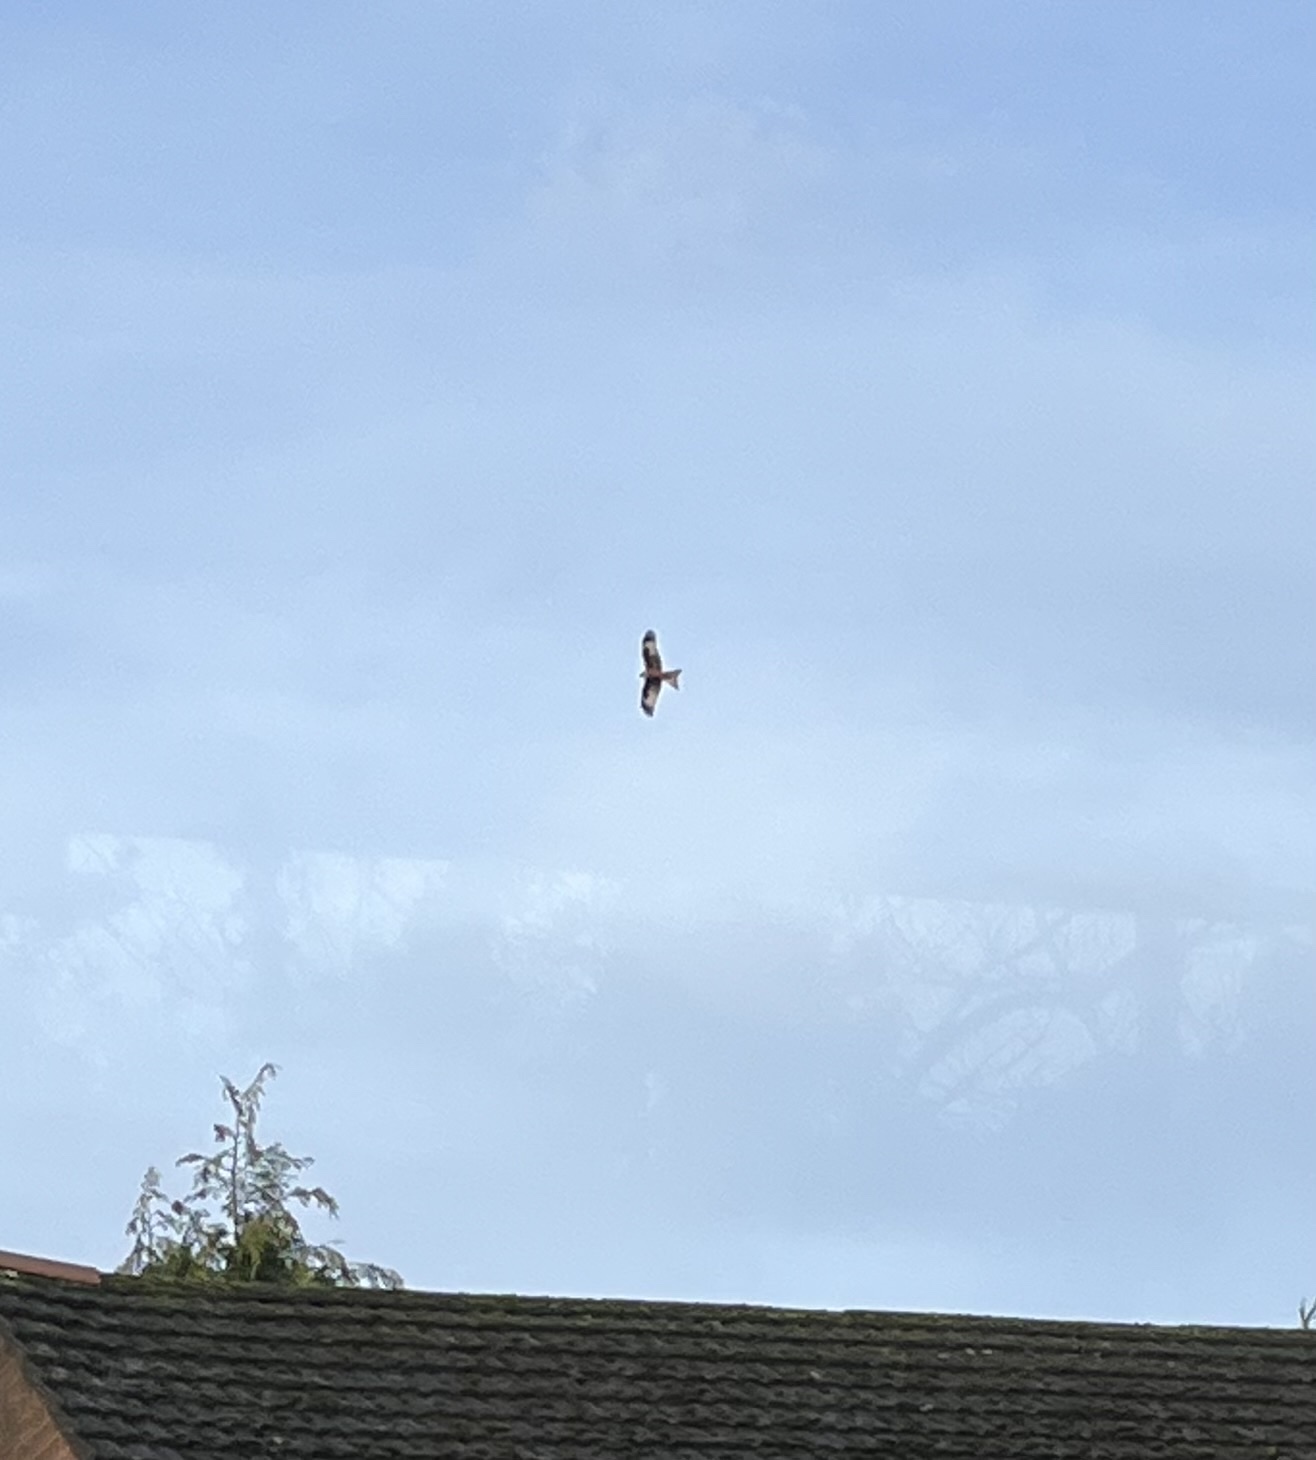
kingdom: Animalia
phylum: Chordata
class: Aves
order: Accipitriformes
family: Accipitridae
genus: Milvus
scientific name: Milvus milvus
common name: Red kite
